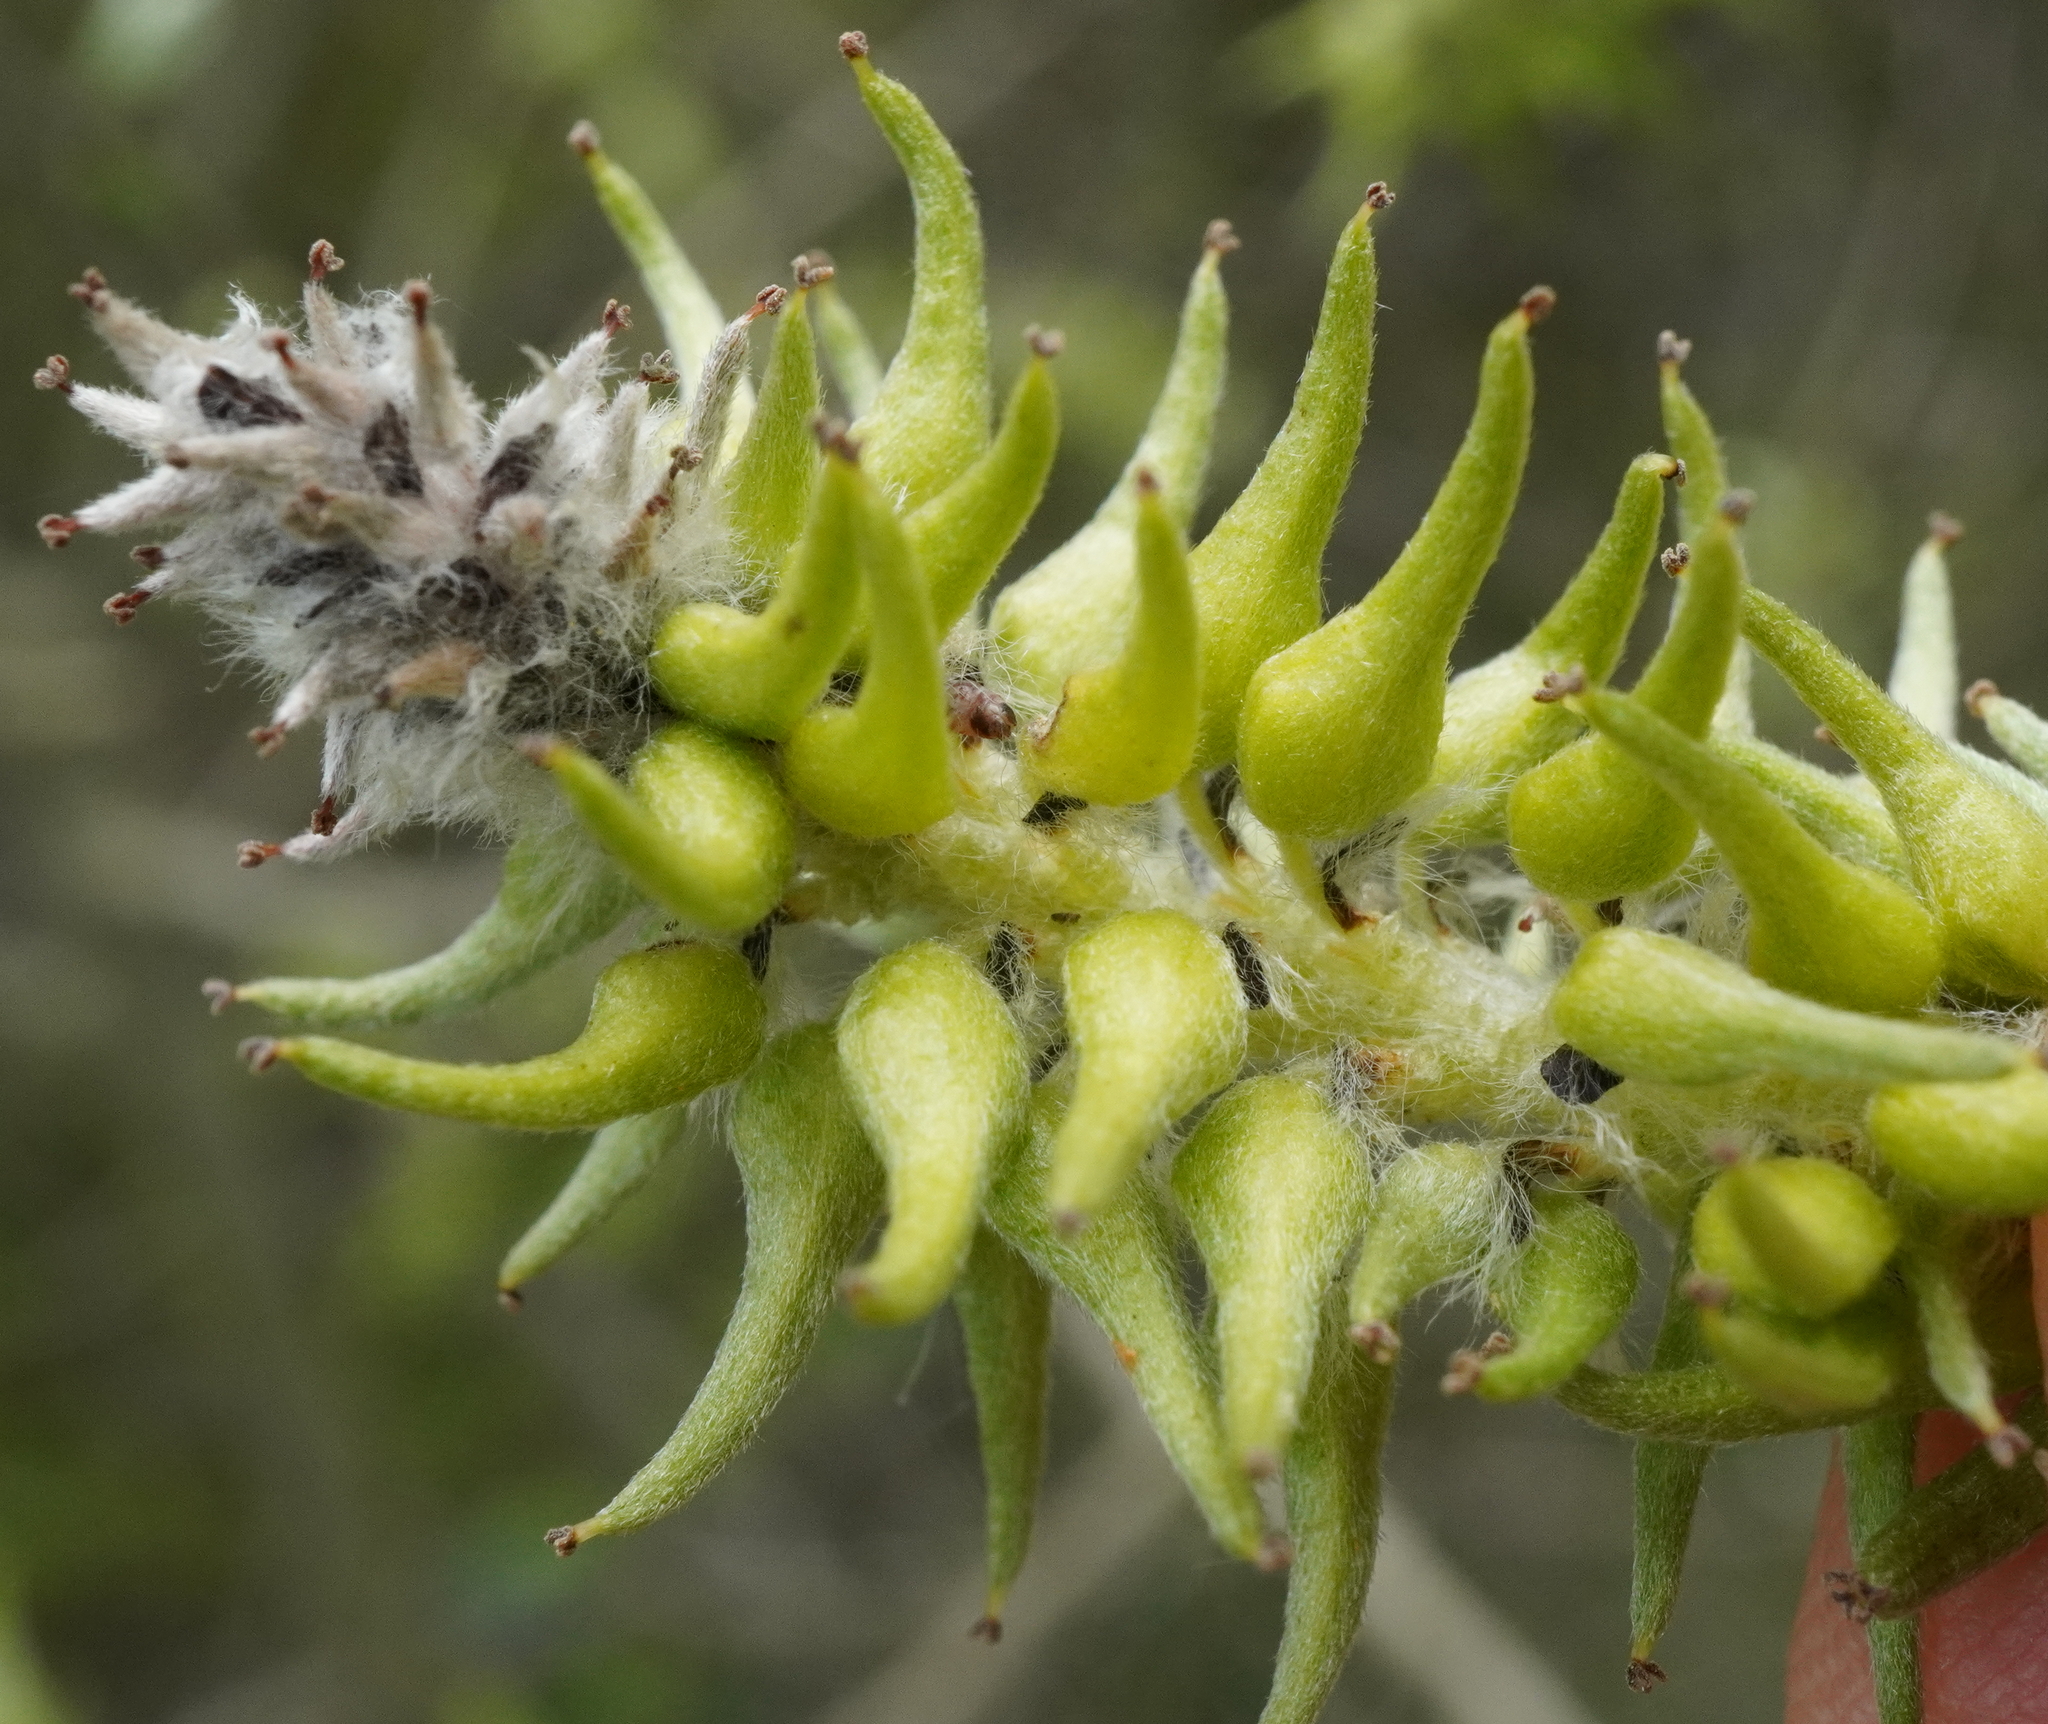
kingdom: Plantae
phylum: Tracheophyta
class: Magnoliopsida
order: Malpighiales
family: Salicaceae
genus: Salix
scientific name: Salix cinerea
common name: Common sallow
